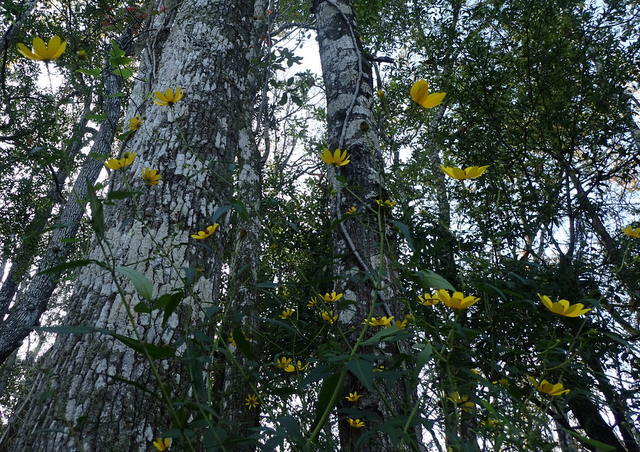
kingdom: Plantae
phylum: Tracheophyta
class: Magnoliopsida
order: Asterales
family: Asteraceae
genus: Bidens
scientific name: Bidens mitis
